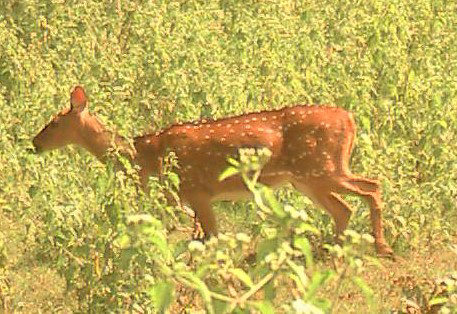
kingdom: Animalia
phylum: Chordata
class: Mammalia
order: Artiodactyla
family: Cervidae
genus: Axis
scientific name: Axis axis
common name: Chital
